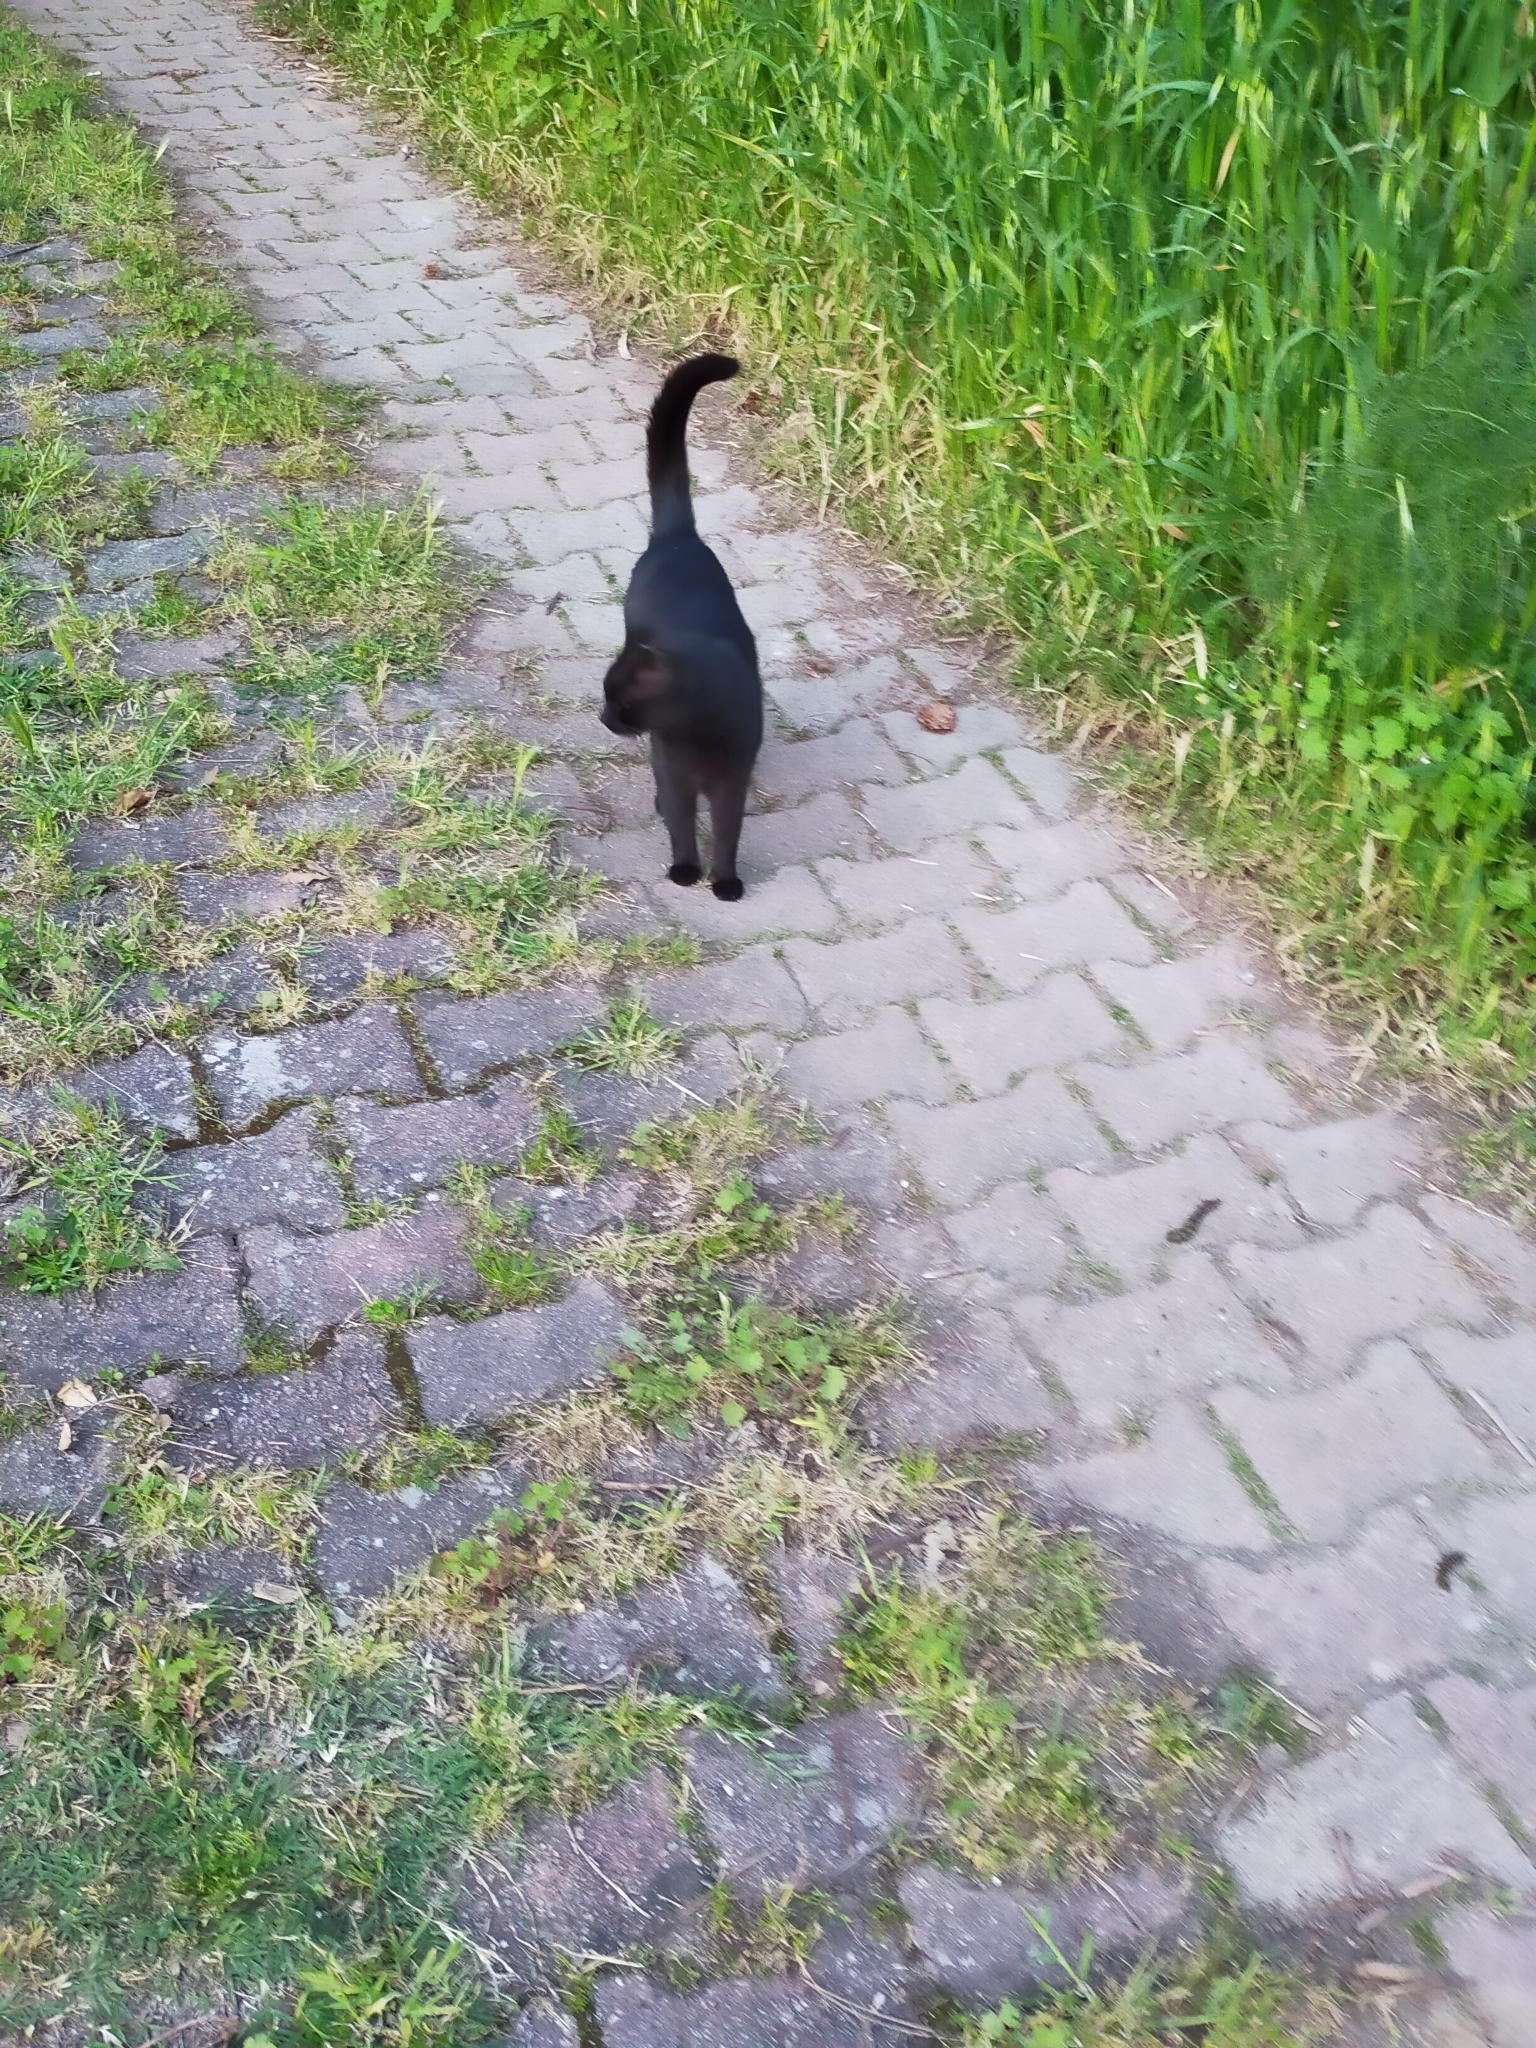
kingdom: Animalia
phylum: Chordata
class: Mammalia
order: Carnivora
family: Felidae
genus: Felis
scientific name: Felis catus
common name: Domestic cat
